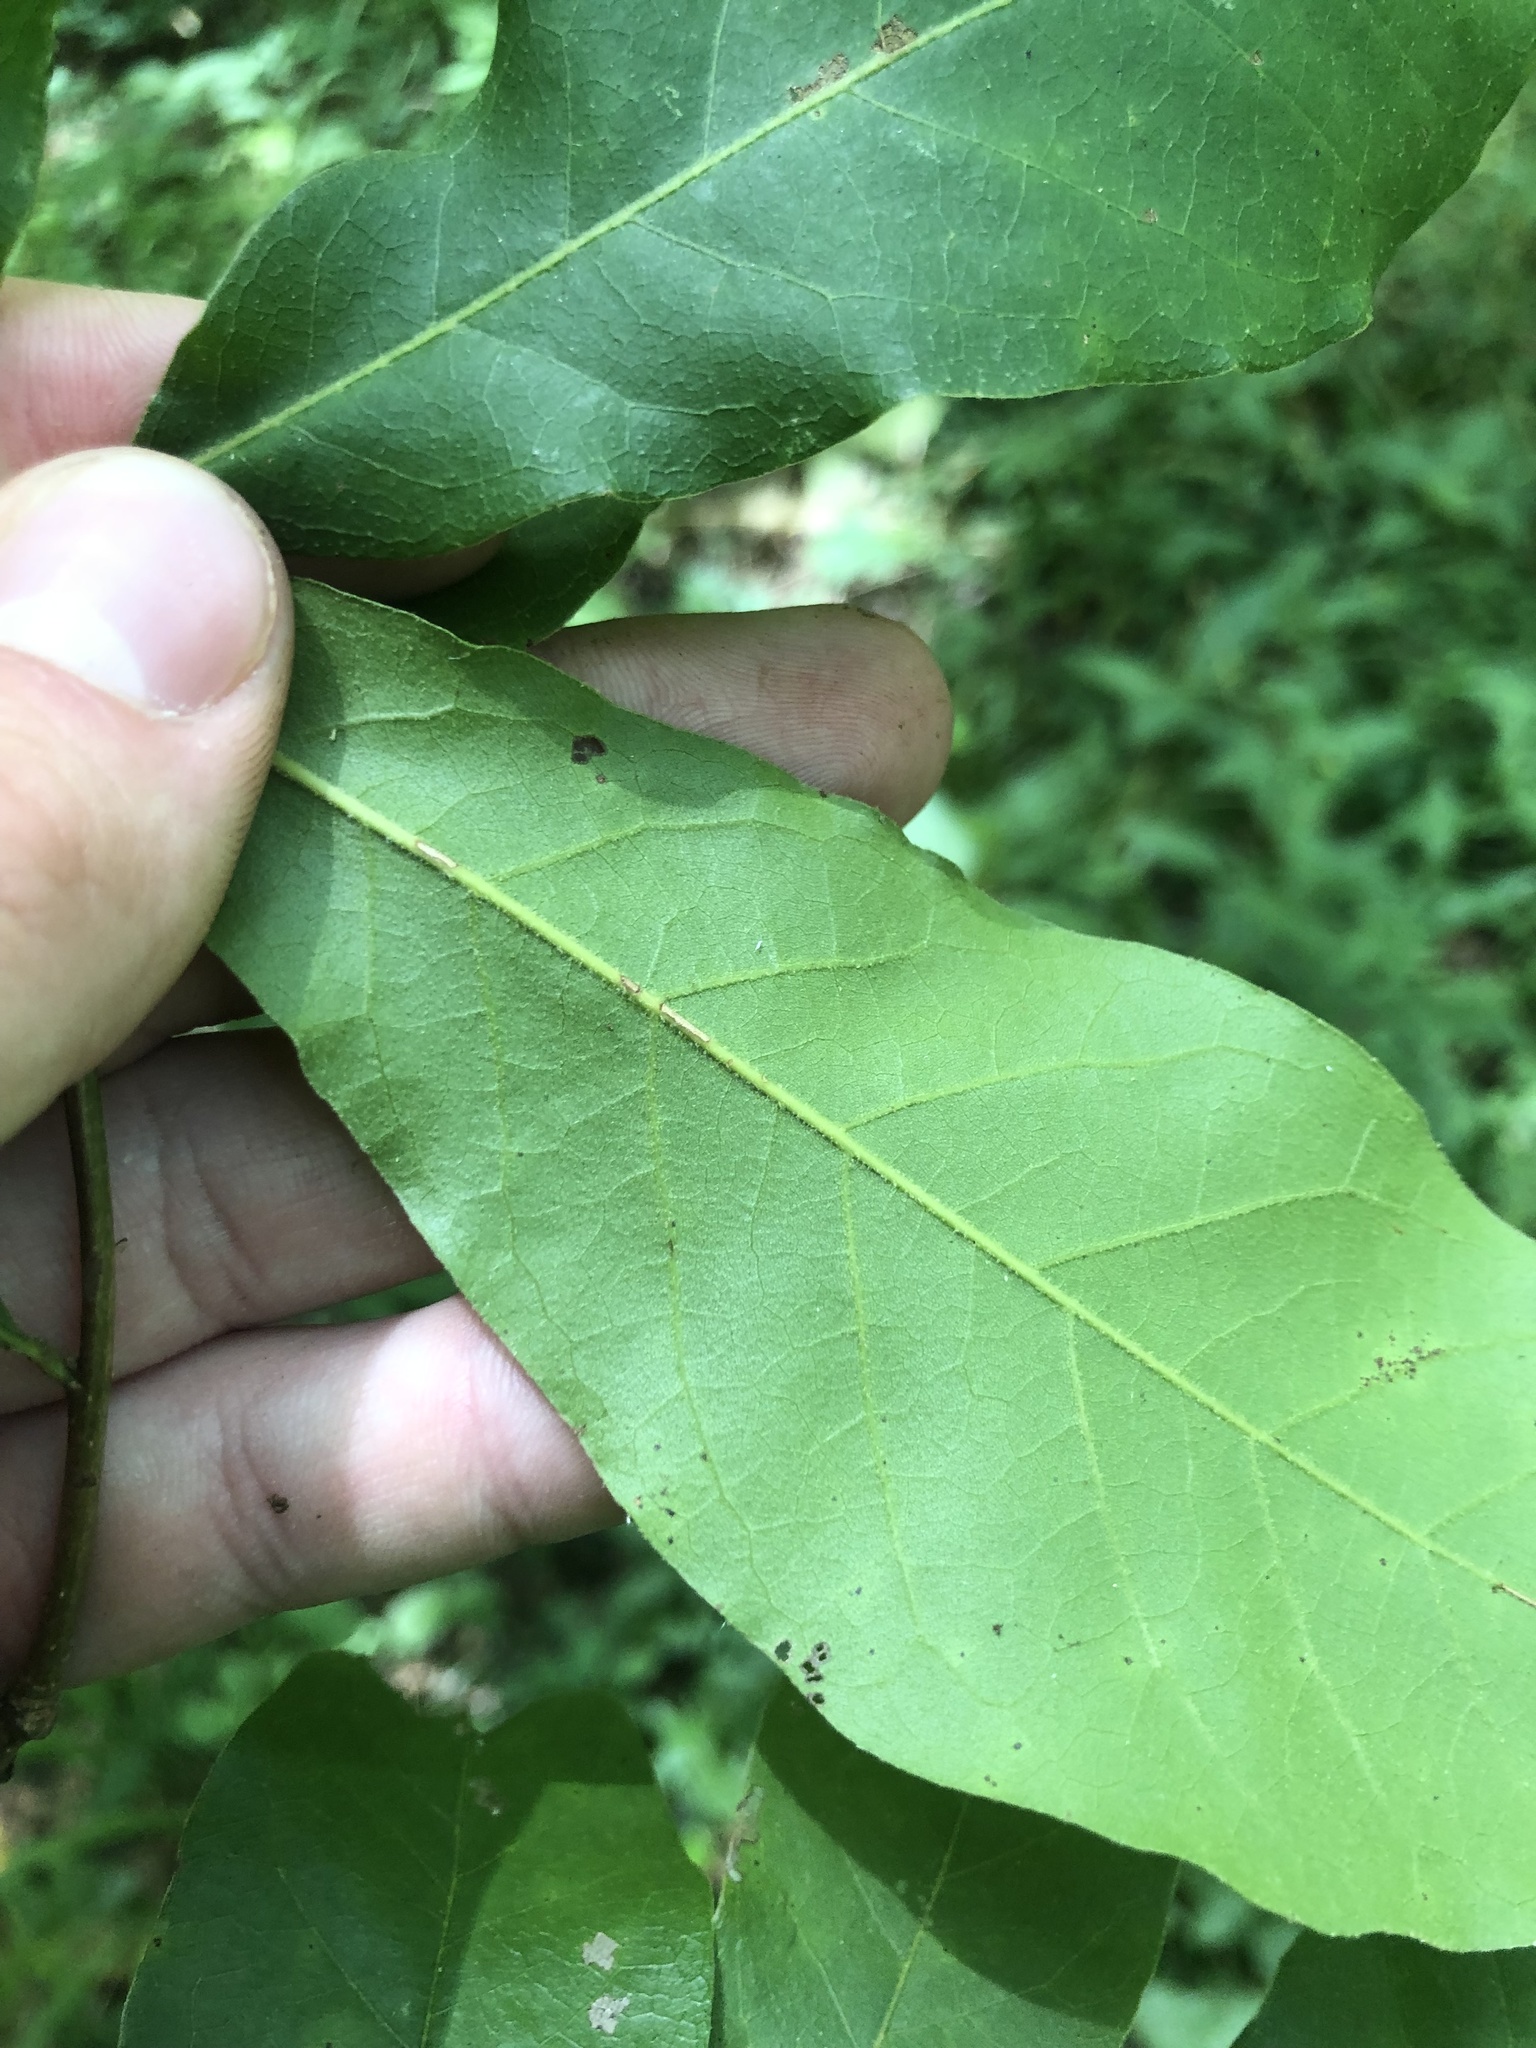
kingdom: Plantae
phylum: Tracheophyta
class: Magnoliopsida
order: Fagales
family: Fagaceae
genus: Quercus
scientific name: Quercus oglethorpensis
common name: Oglethorpe oak
